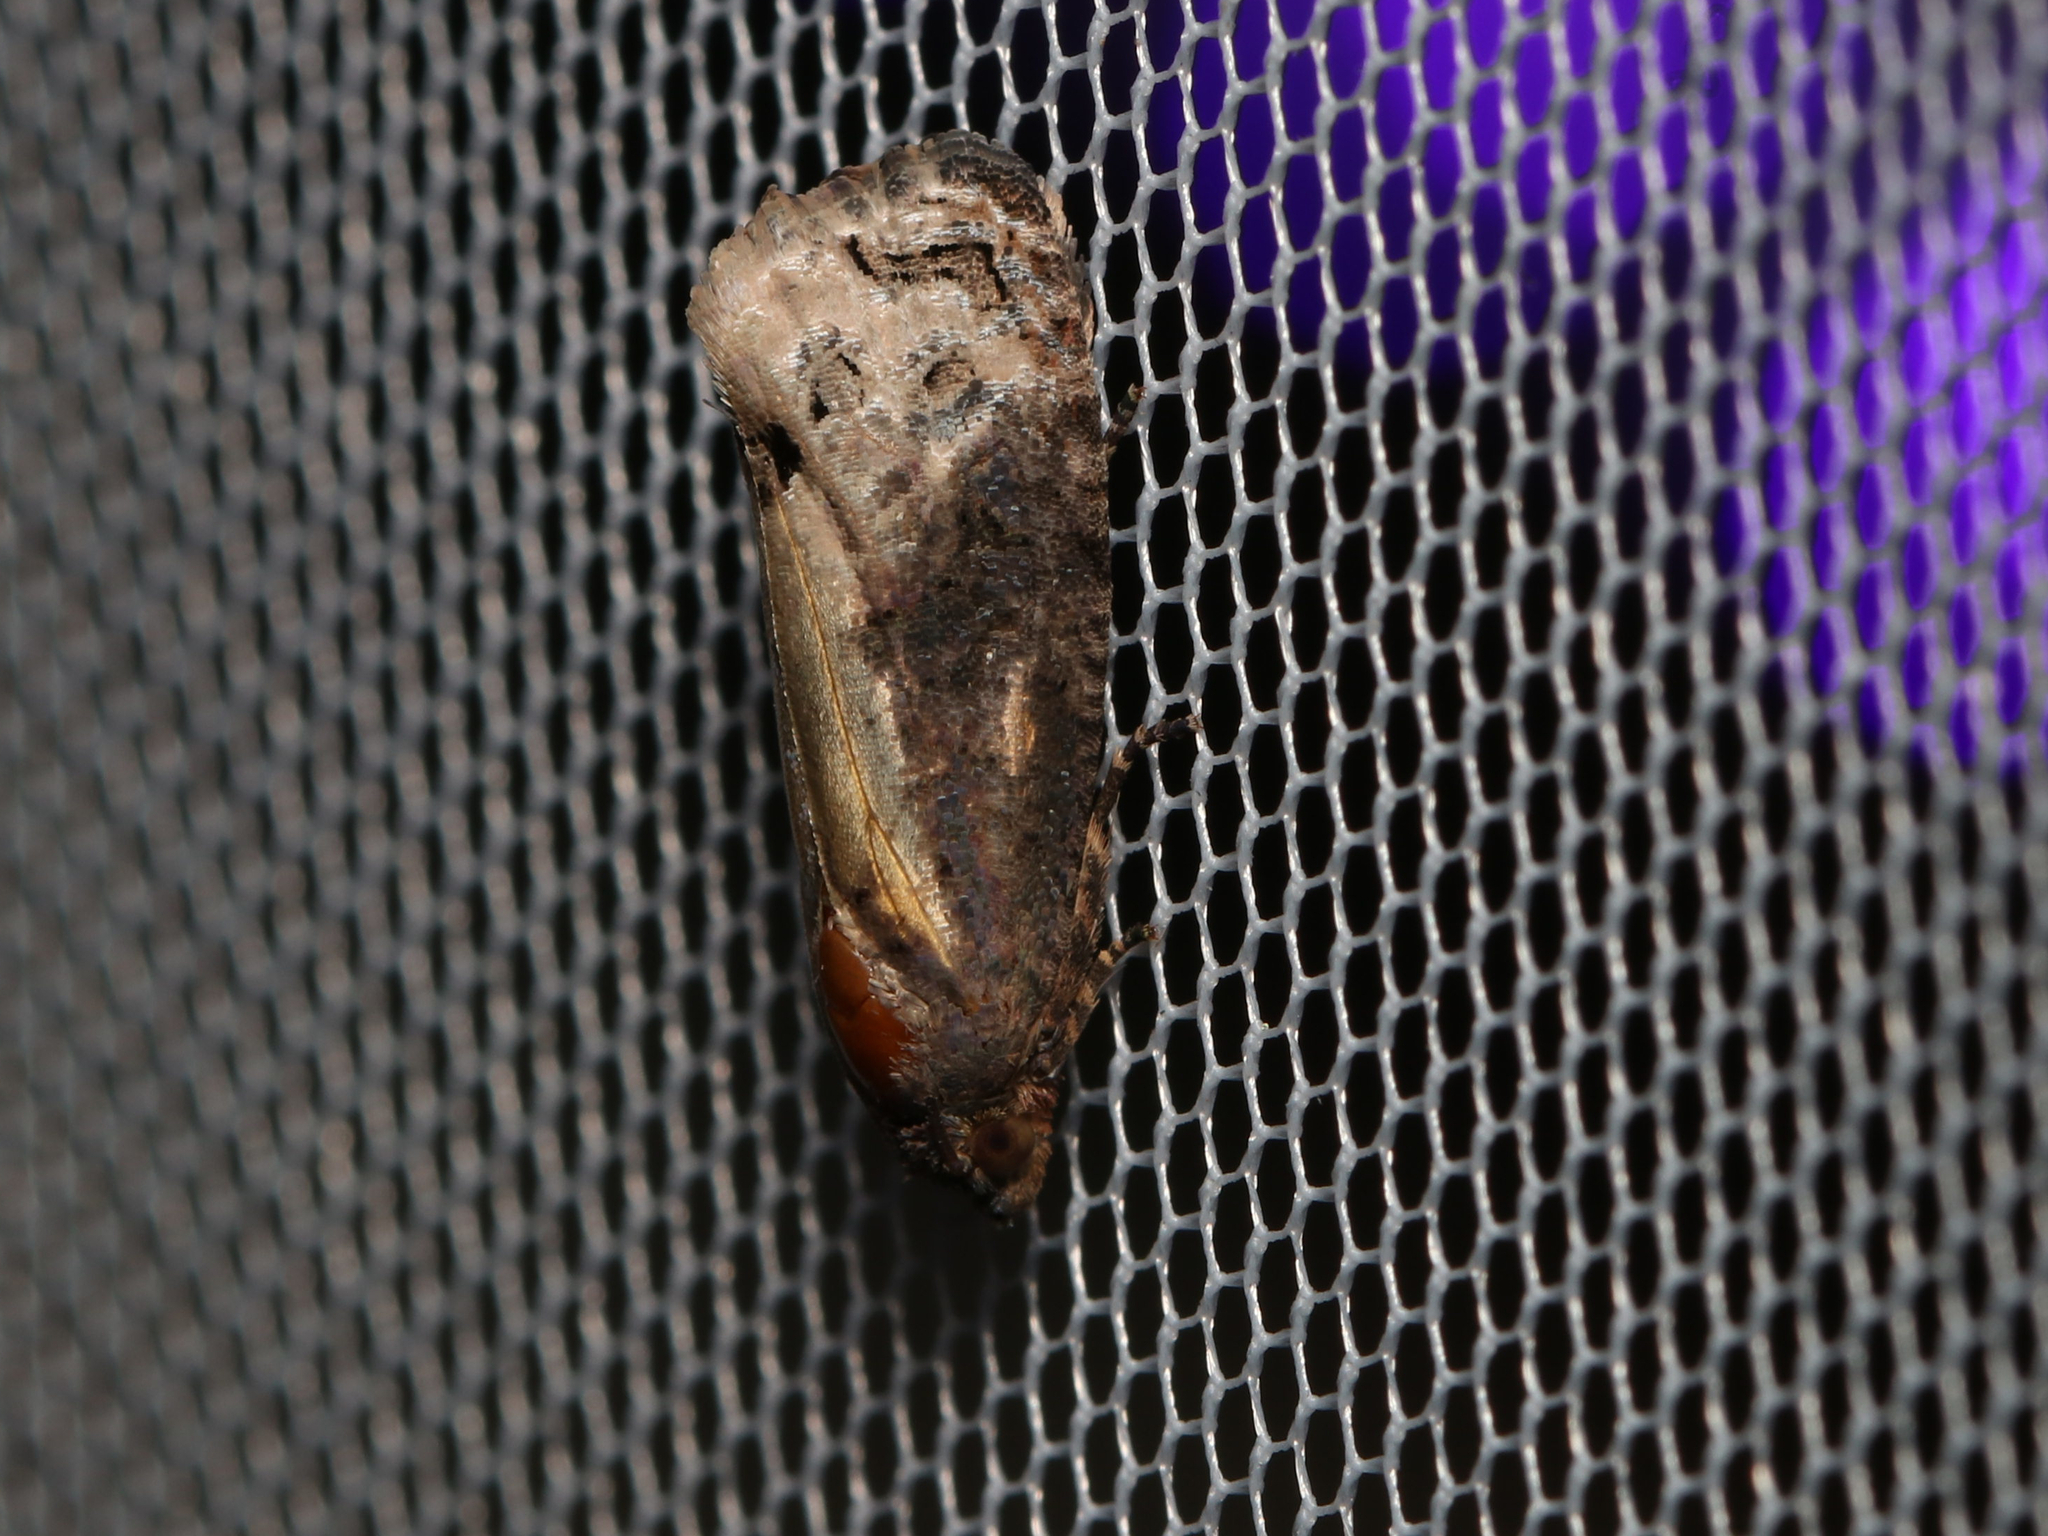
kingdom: Animalia
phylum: Arthropoda
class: Insecta
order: Lepidoptera
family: Tortricidae
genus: Ecdytolopha
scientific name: Ecdytolopha insiticiana
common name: Locust twig borer moth
